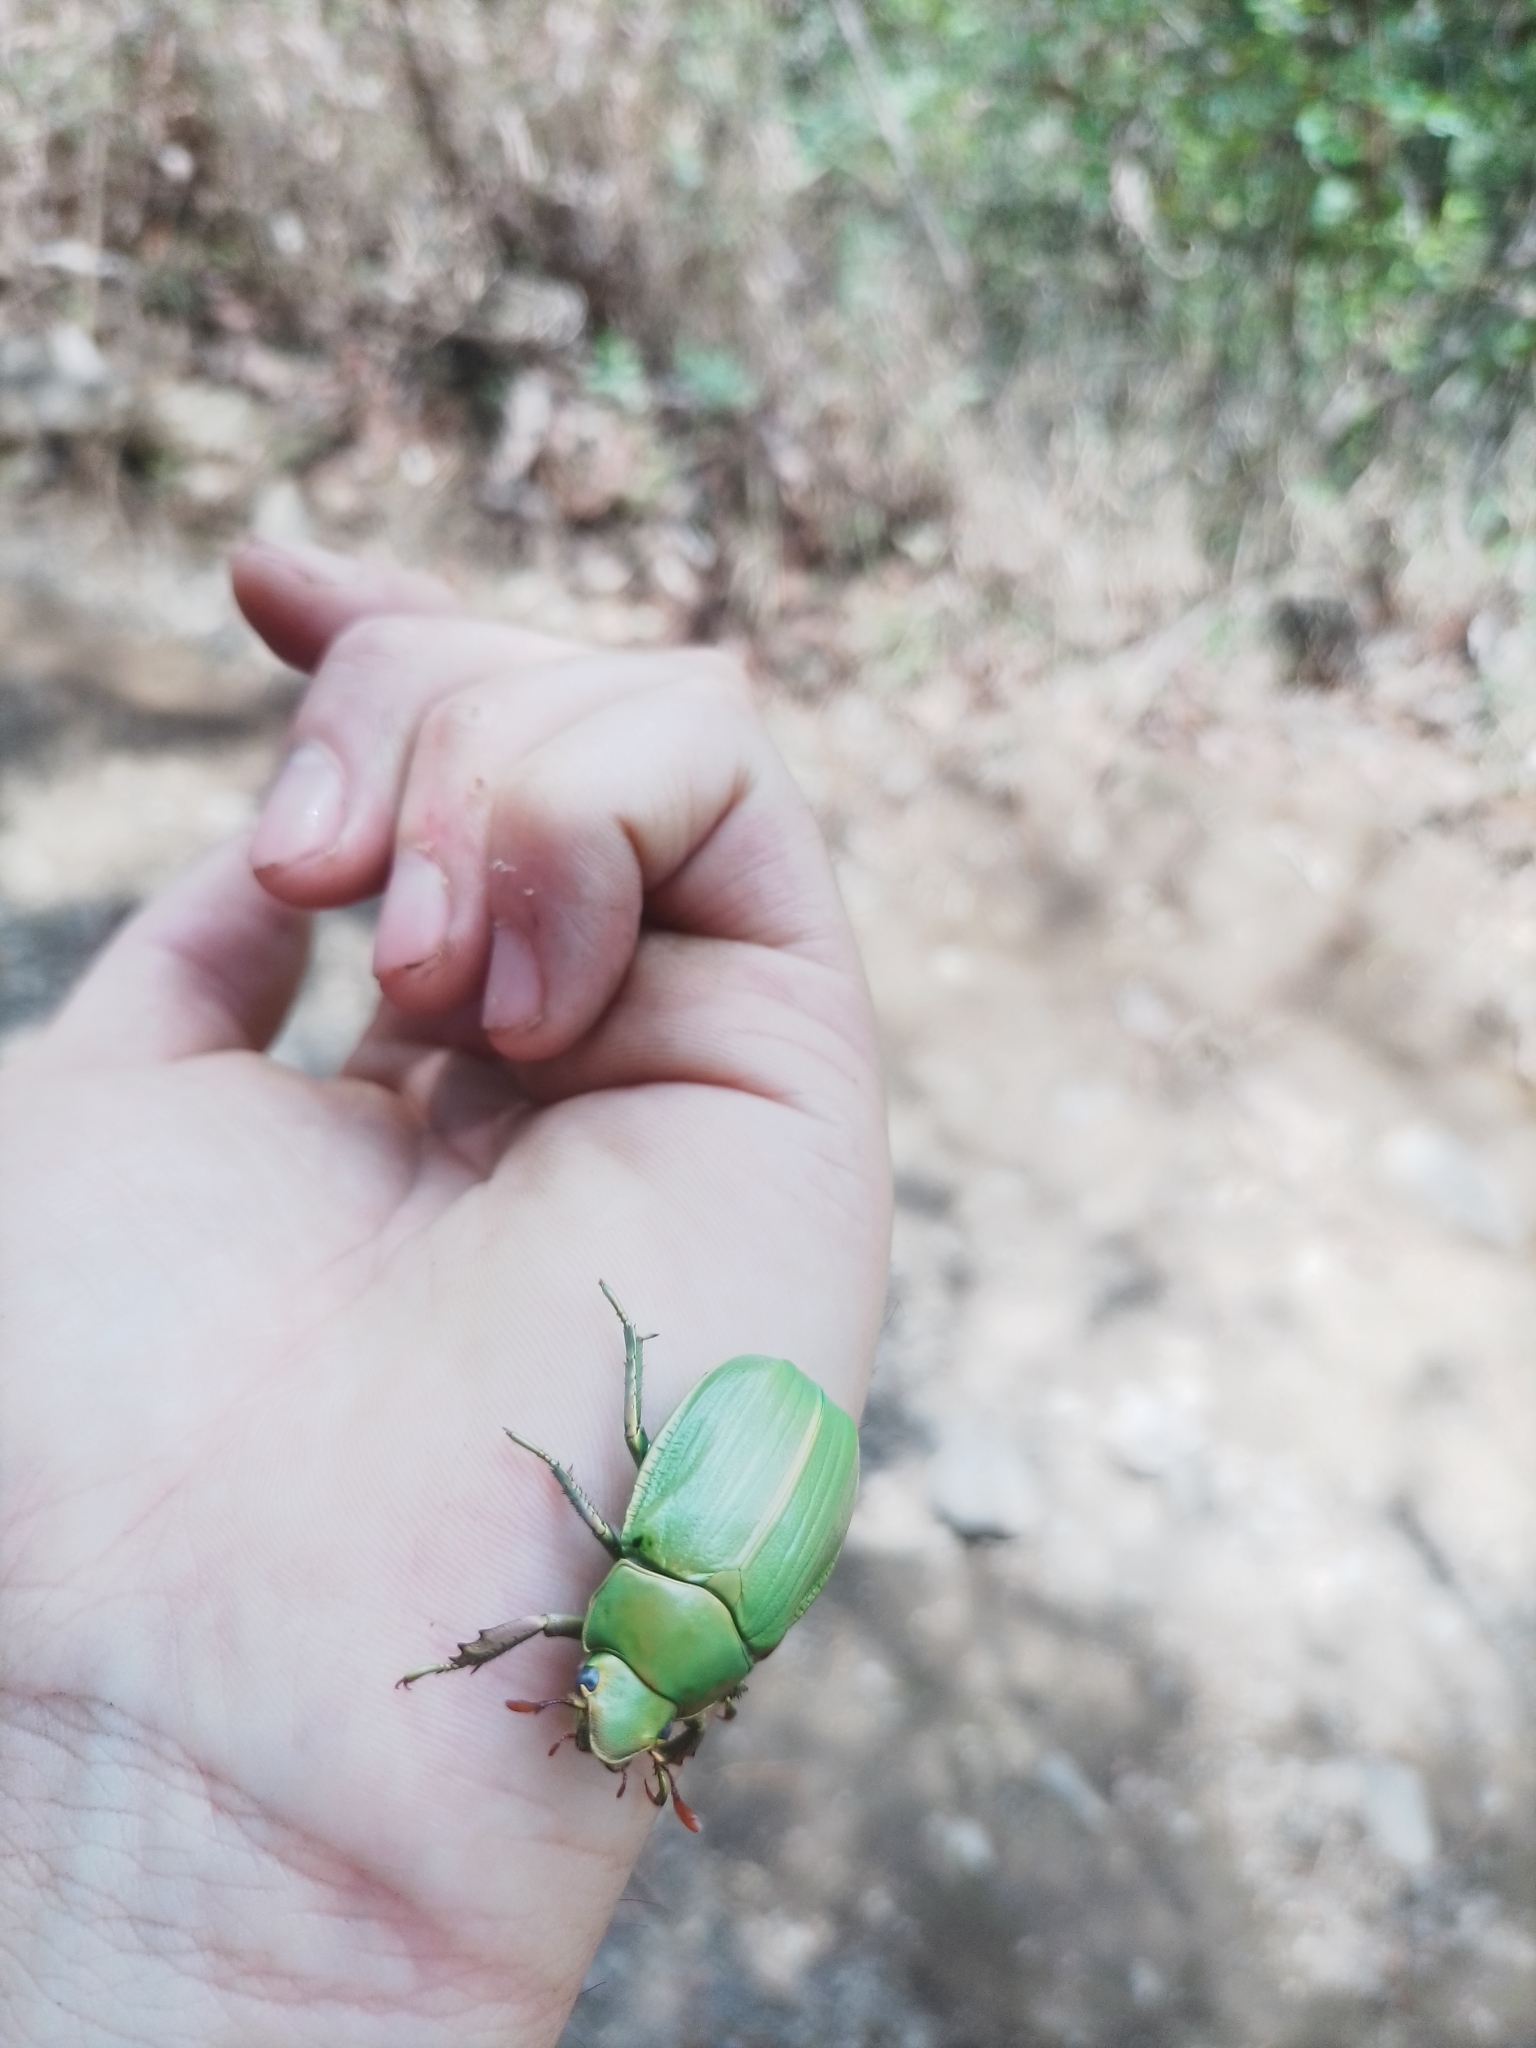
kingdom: Animalia
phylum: Arthropoda
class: Insecta
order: Coleoptera
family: Scarabaeidae
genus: Chrysina
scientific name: Chrysina laniventris
